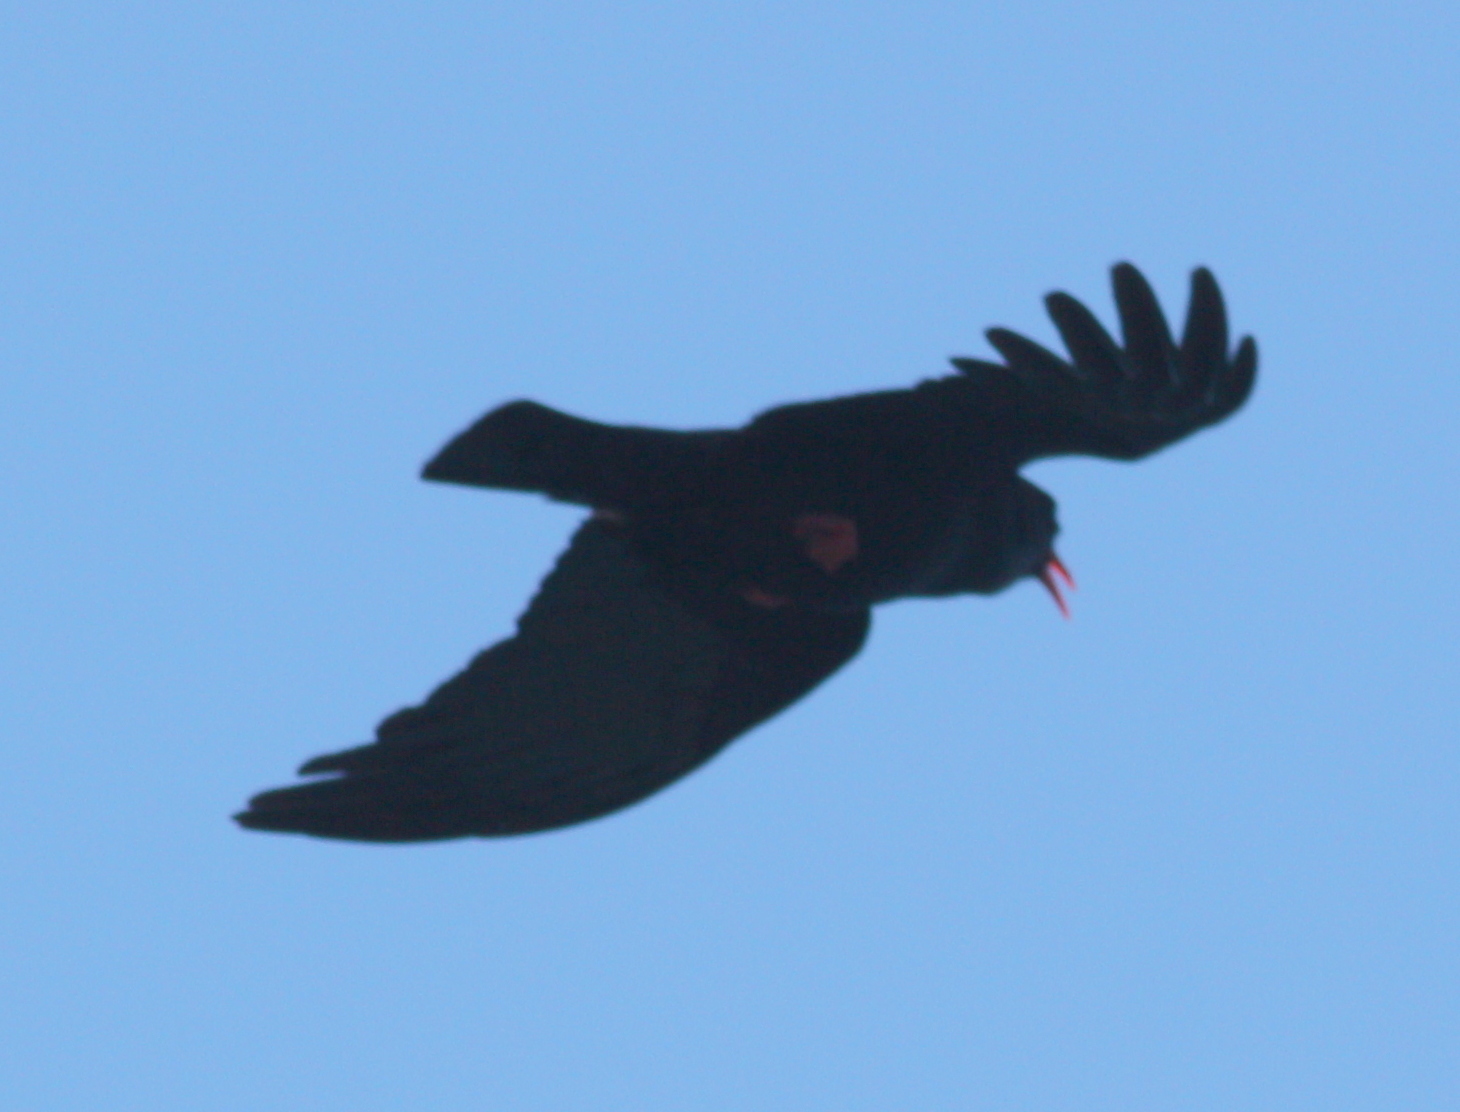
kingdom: Animalia
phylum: Chordata
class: Aves
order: Passeriformes
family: Corvidae
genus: Pyrrhocorax
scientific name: Pyrrhocorax pyrrhocorax
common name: Red-billed chough
